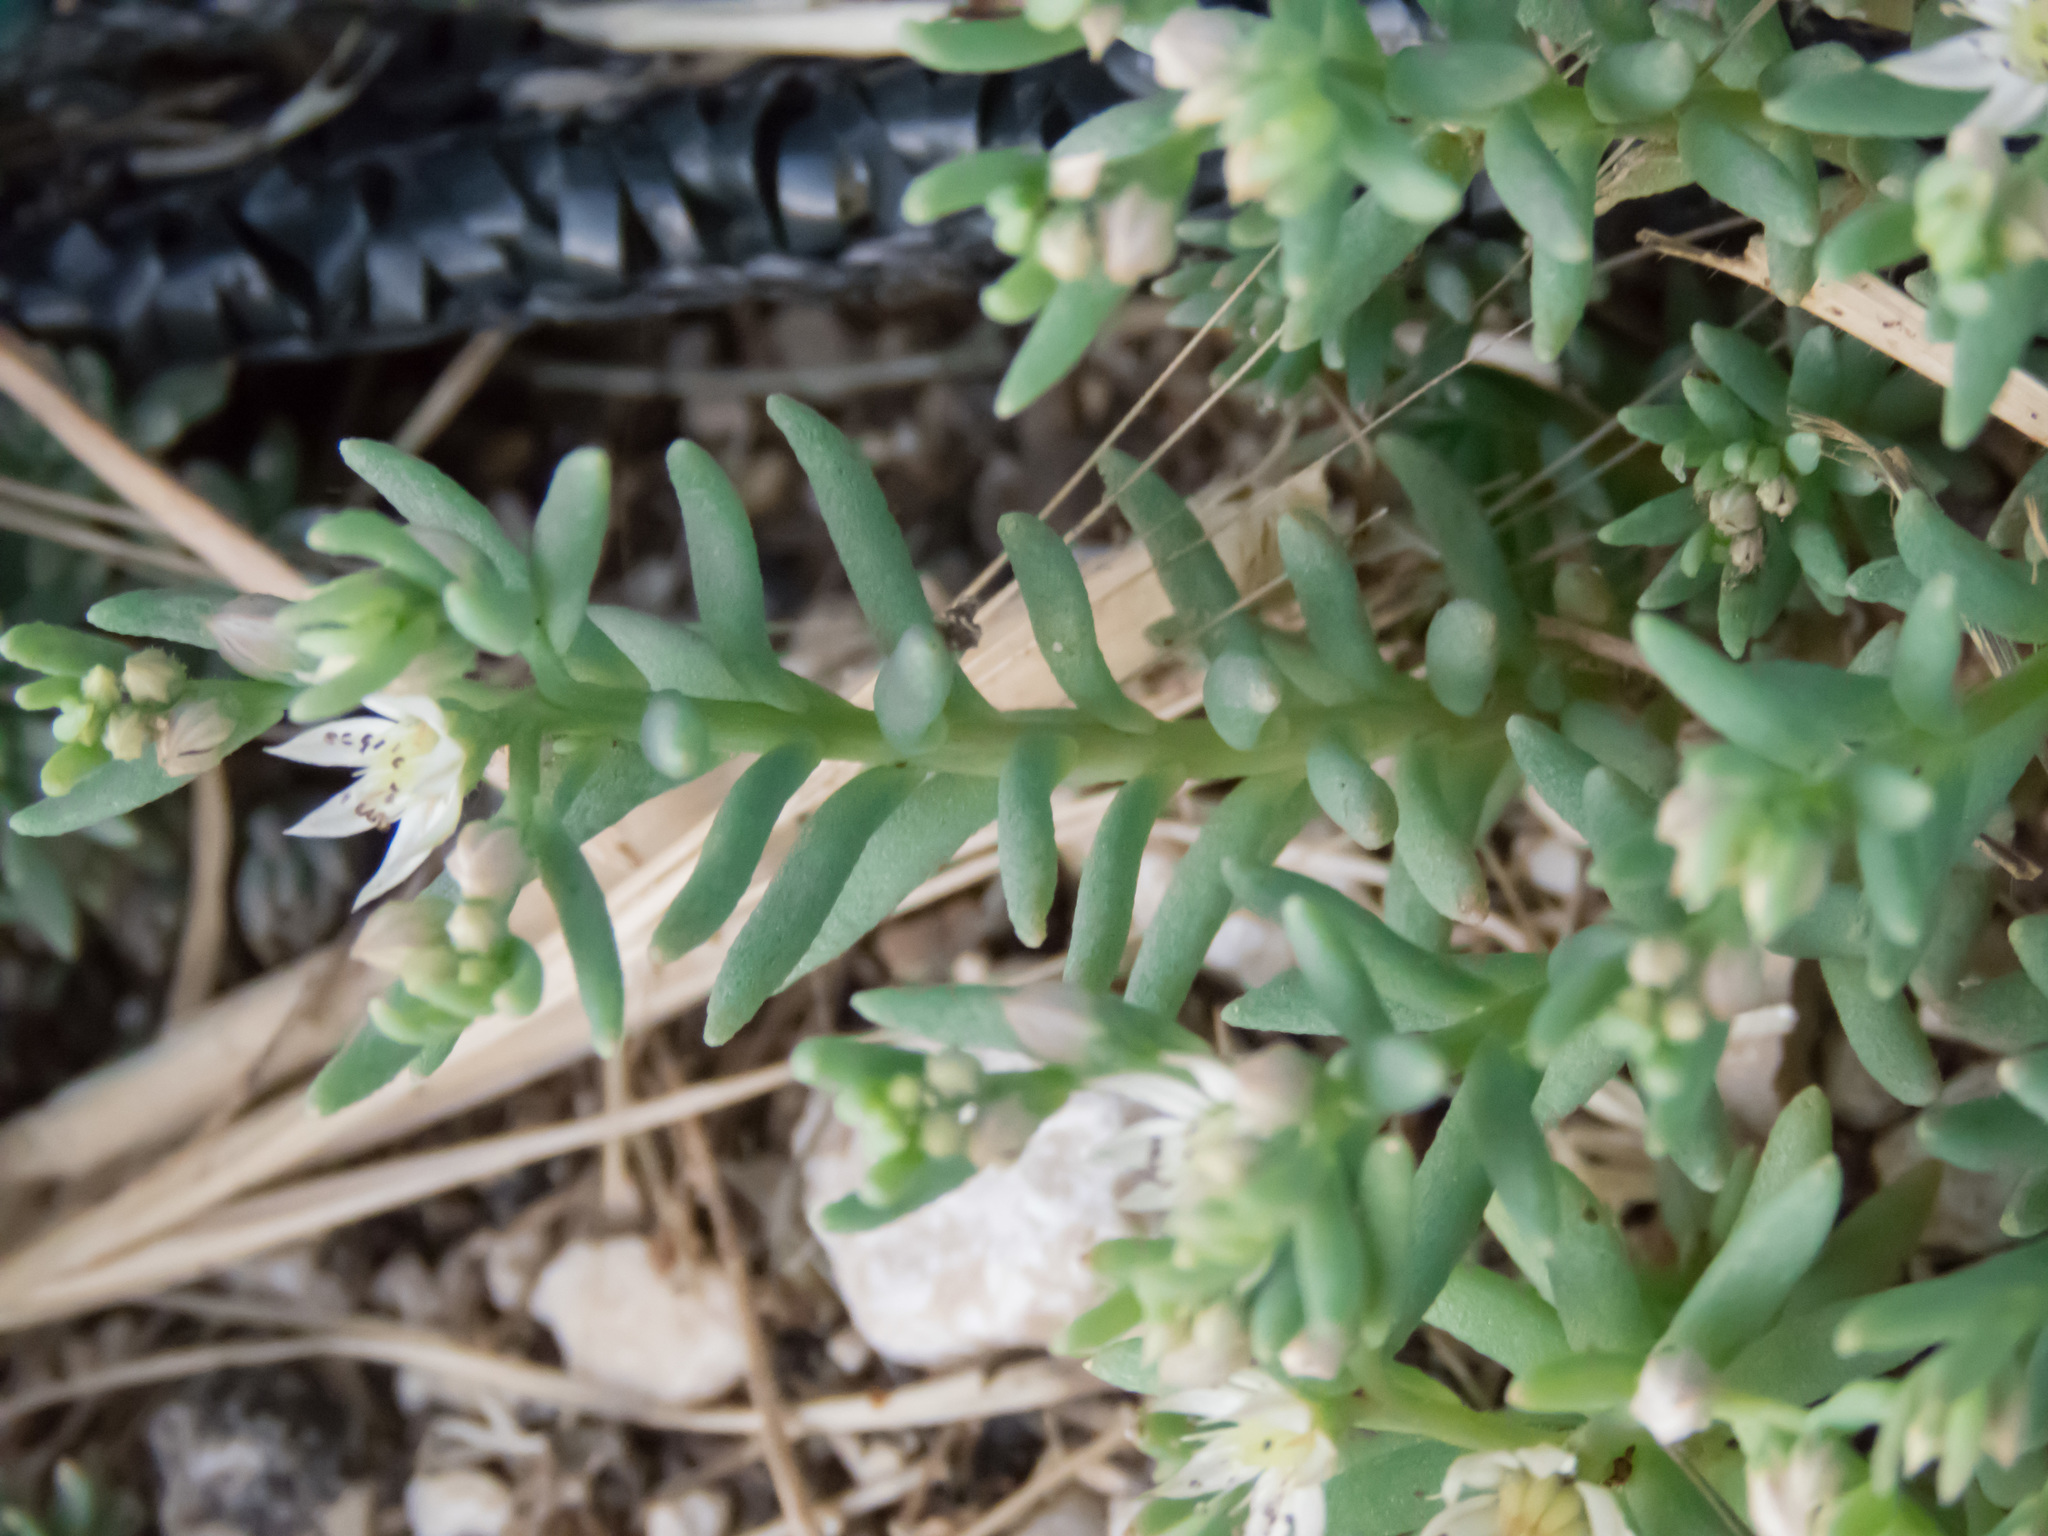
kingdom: Plantae
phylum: Tracheophyta
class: Magnoliopsida
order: Saxifragales
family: Crassulaceae
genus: Sedum
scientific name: Sedum hispanicum
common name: Spanish stonecrop
